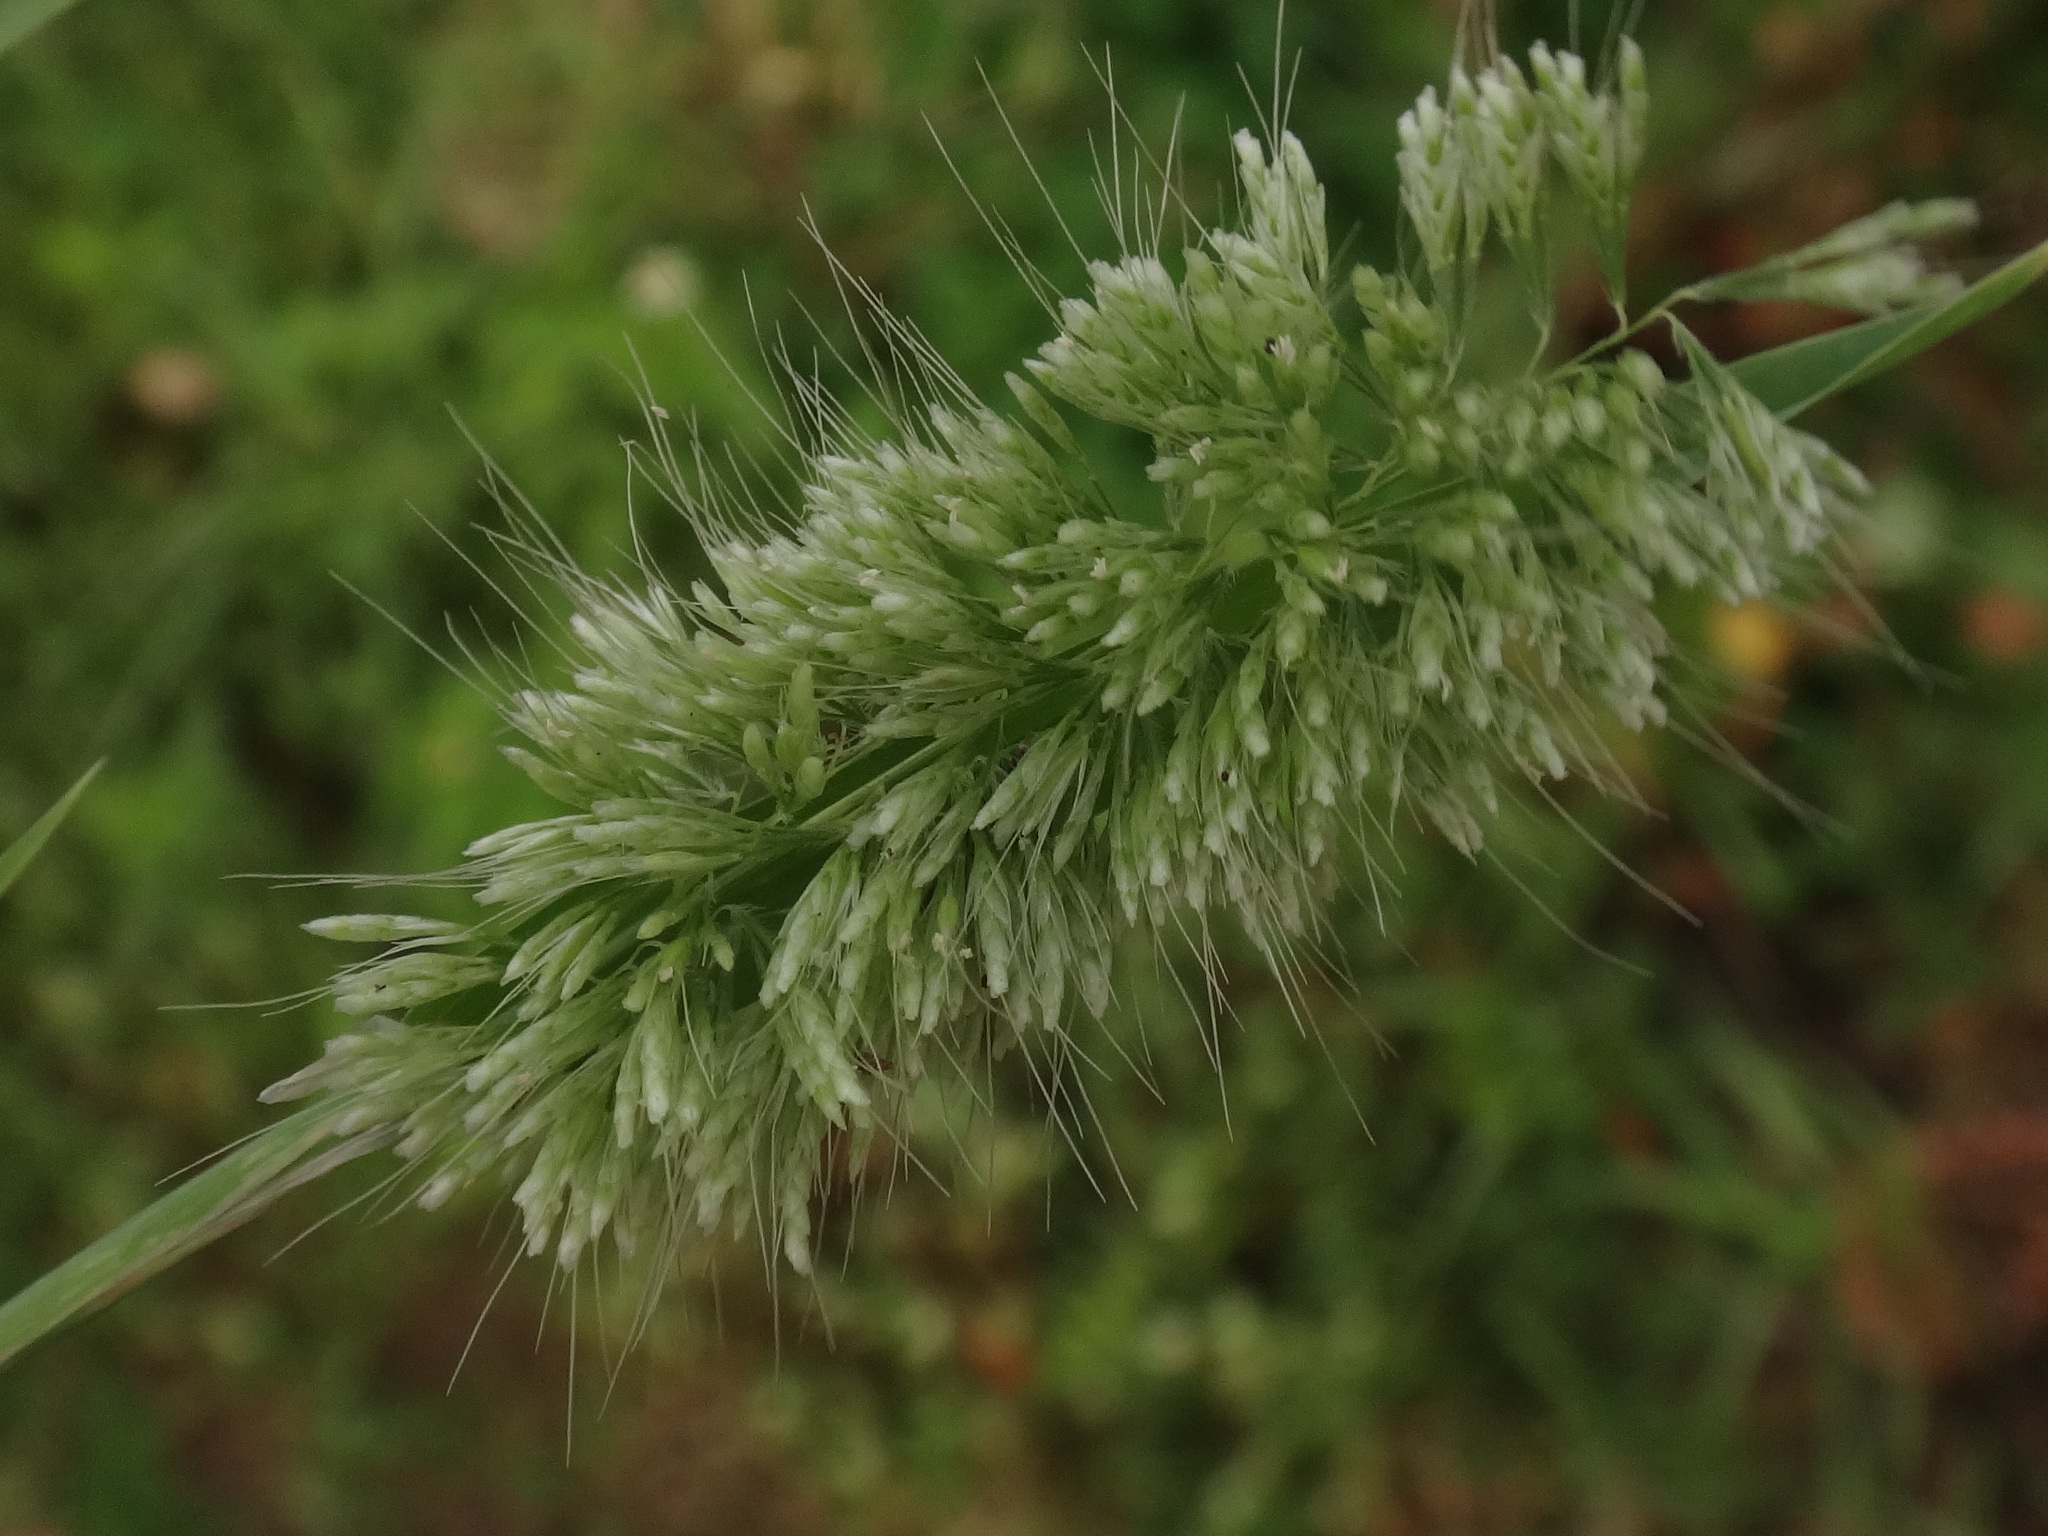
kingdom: Plantae
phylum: Tracheophyta
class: Liliopsida
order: Poales
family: Poaceae
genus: Lamarckia
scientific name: Lamarckia aurea
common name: Golden dog's-tail
